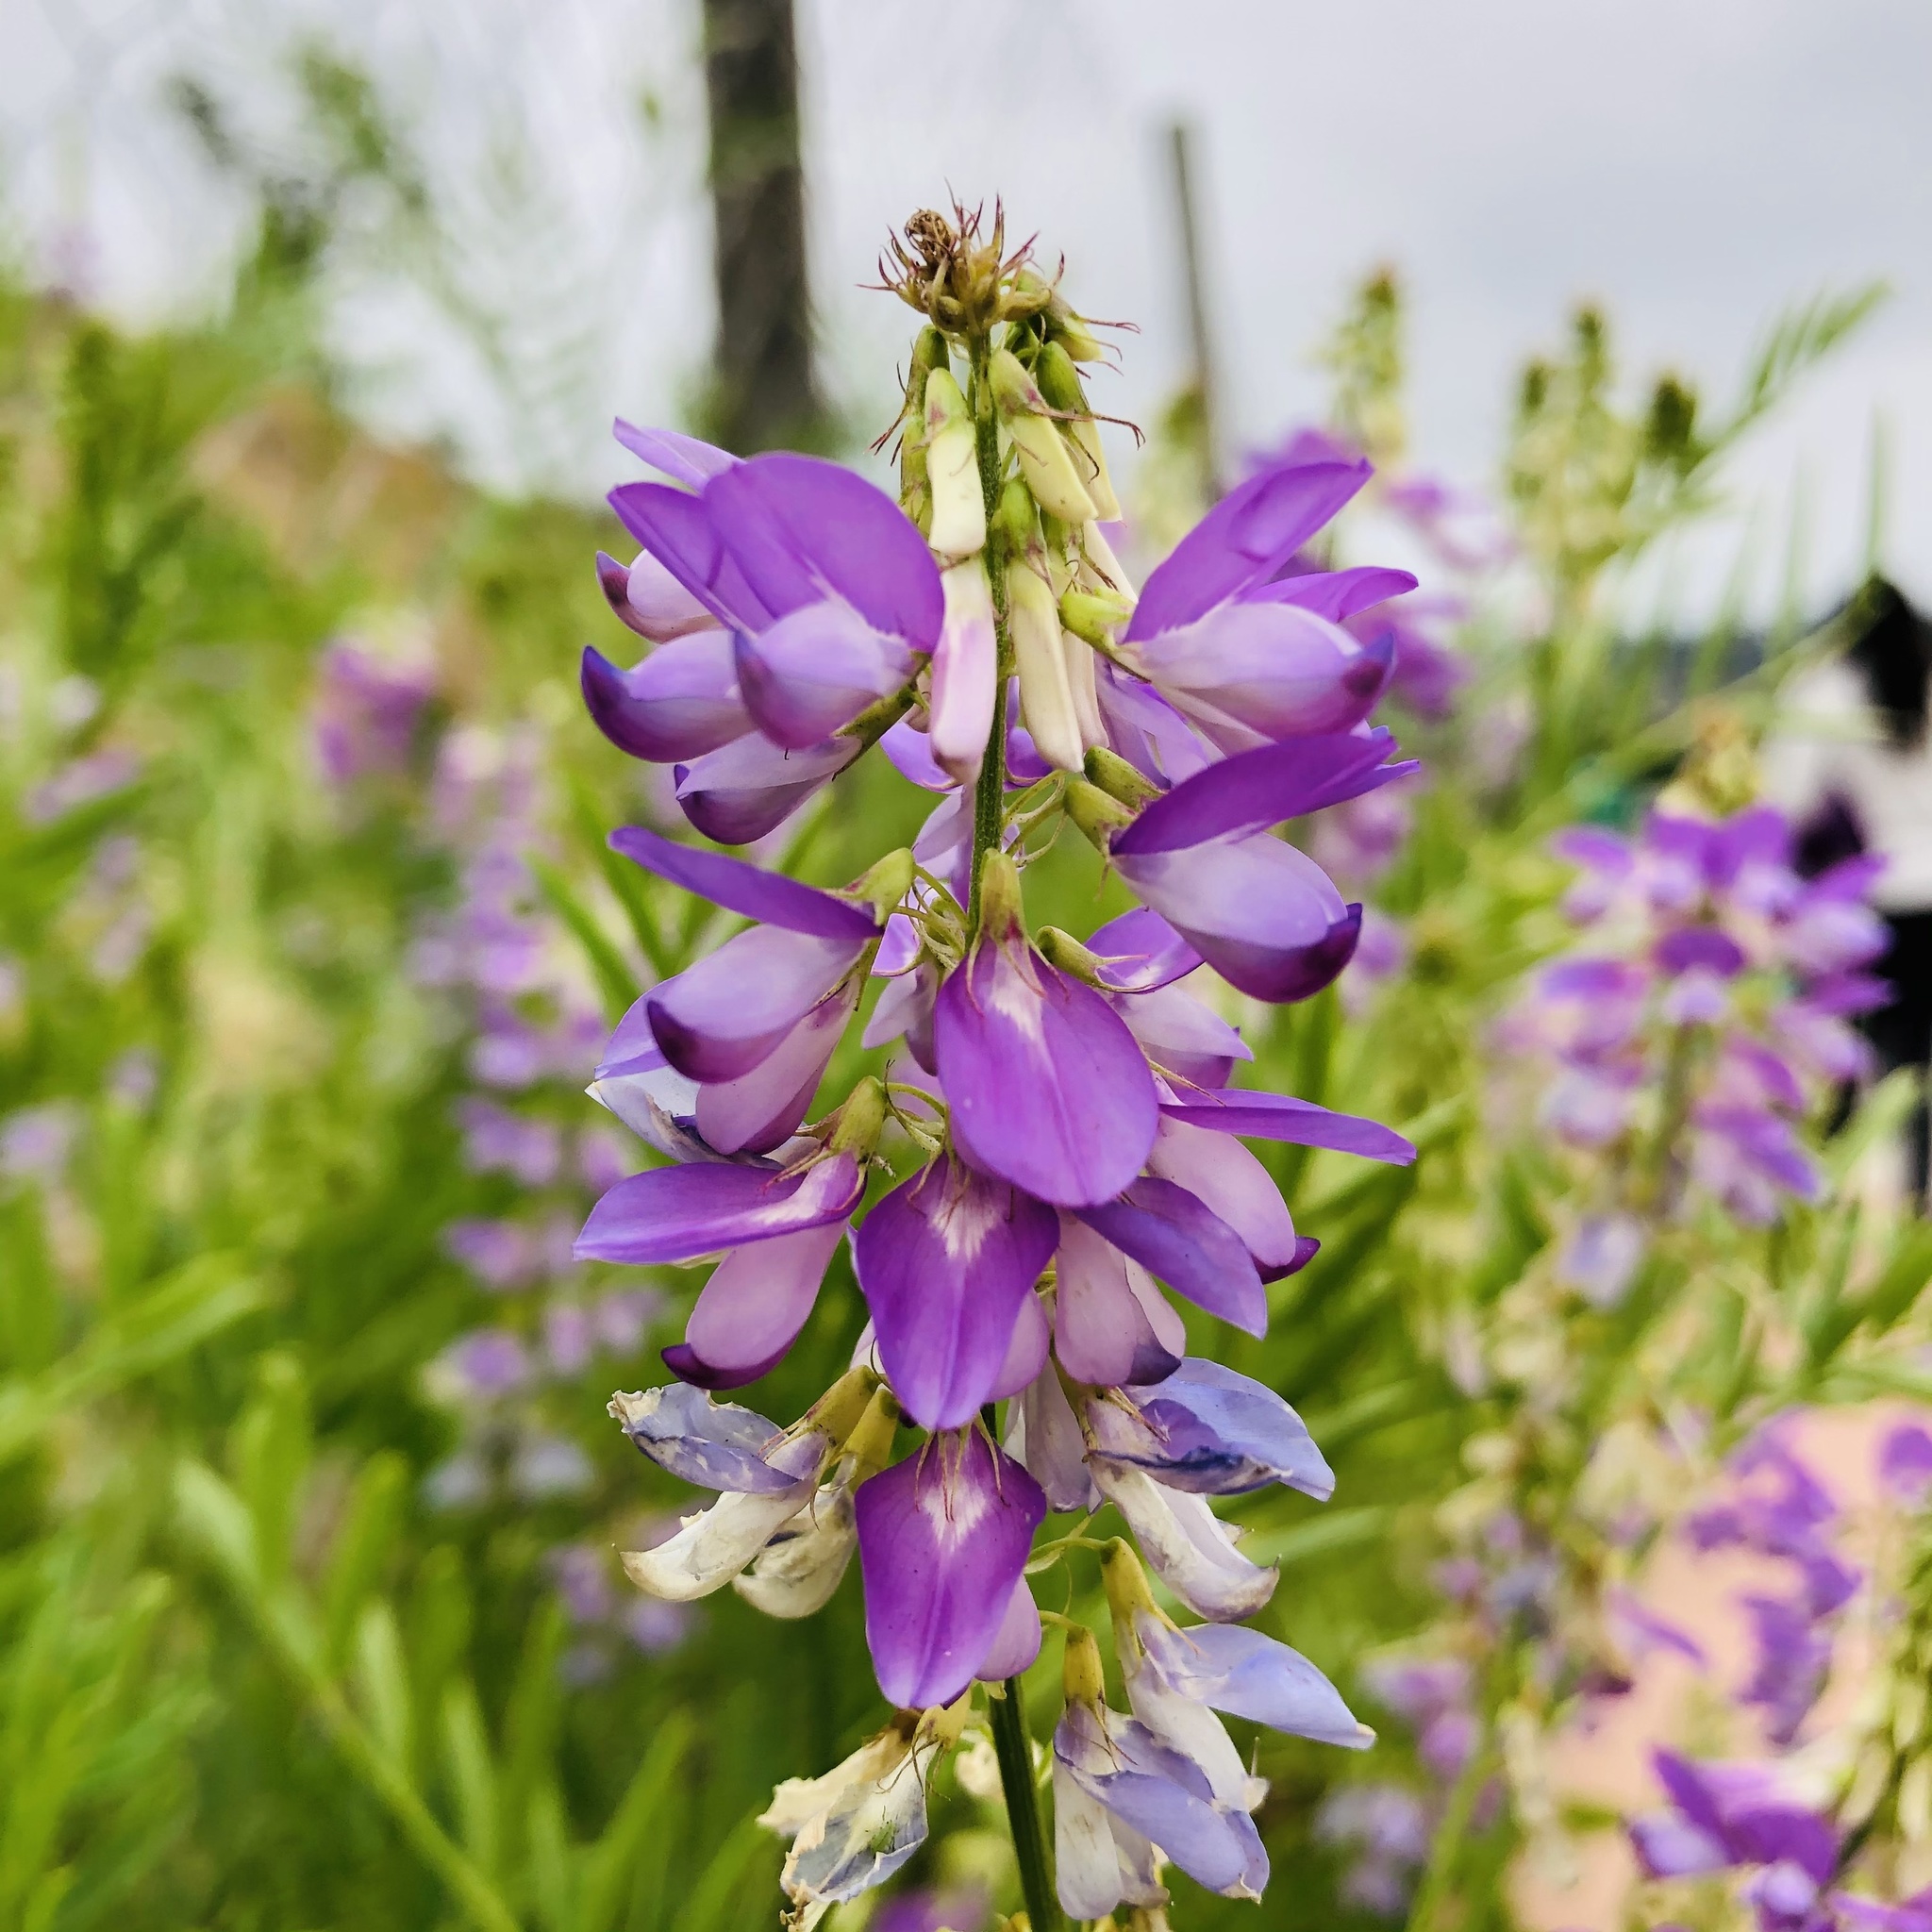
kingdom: Plantae
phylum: Tracheophyta
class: Magnoliopsida
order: Fabales
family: Fabaceae
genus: Galega
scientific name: Galega officinalis
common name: Goat's-rue
